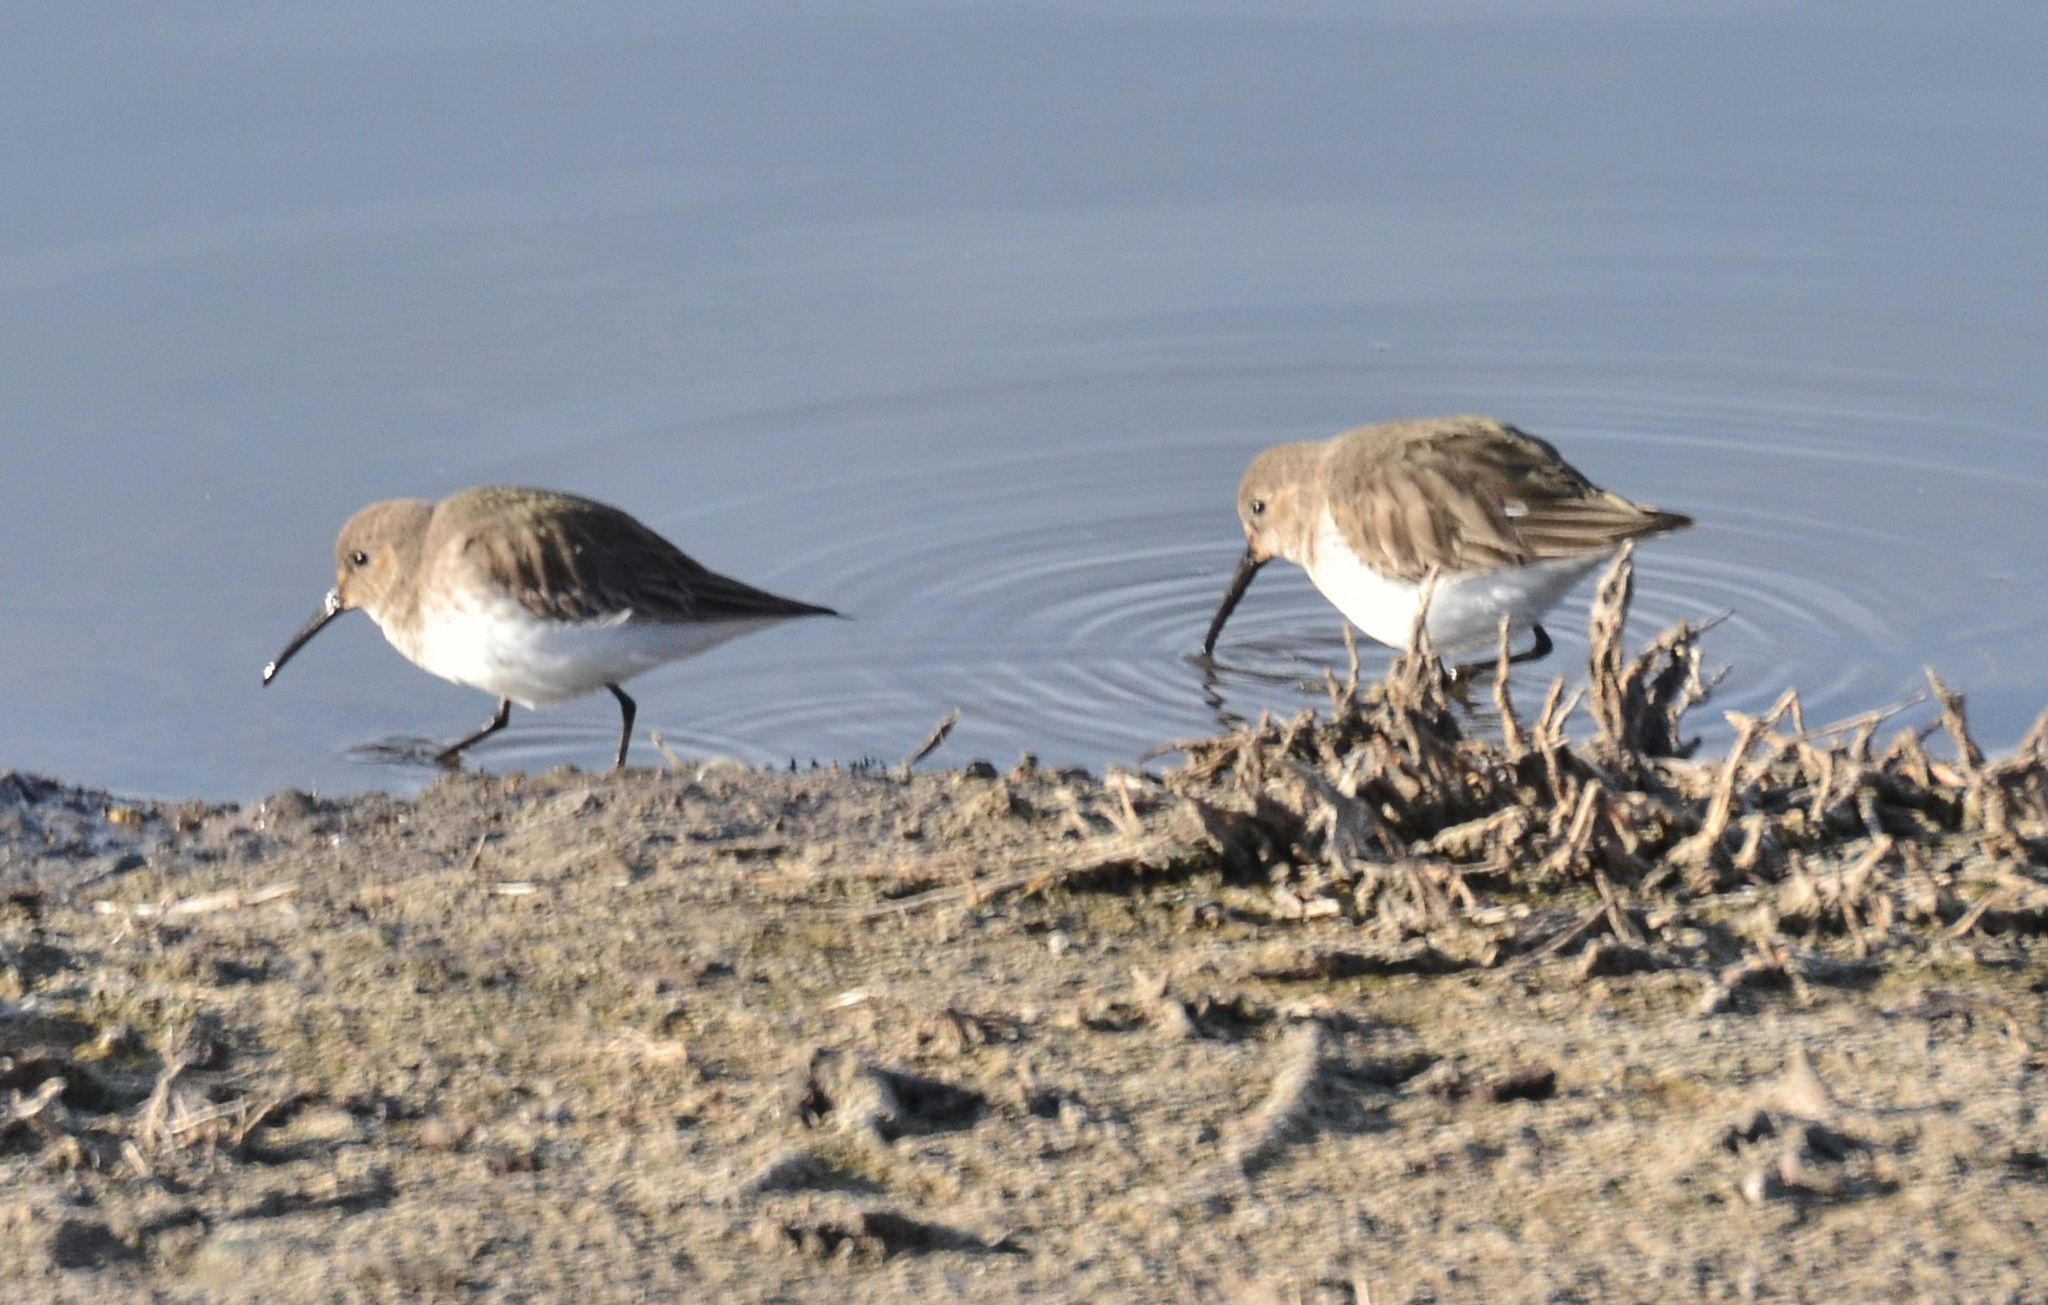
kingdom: Animalia
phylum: Chordata
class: Aves
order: Charadriiformes
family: Scolopacidae
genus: Calidris
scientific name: Calidris alpina
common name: Dunlin
